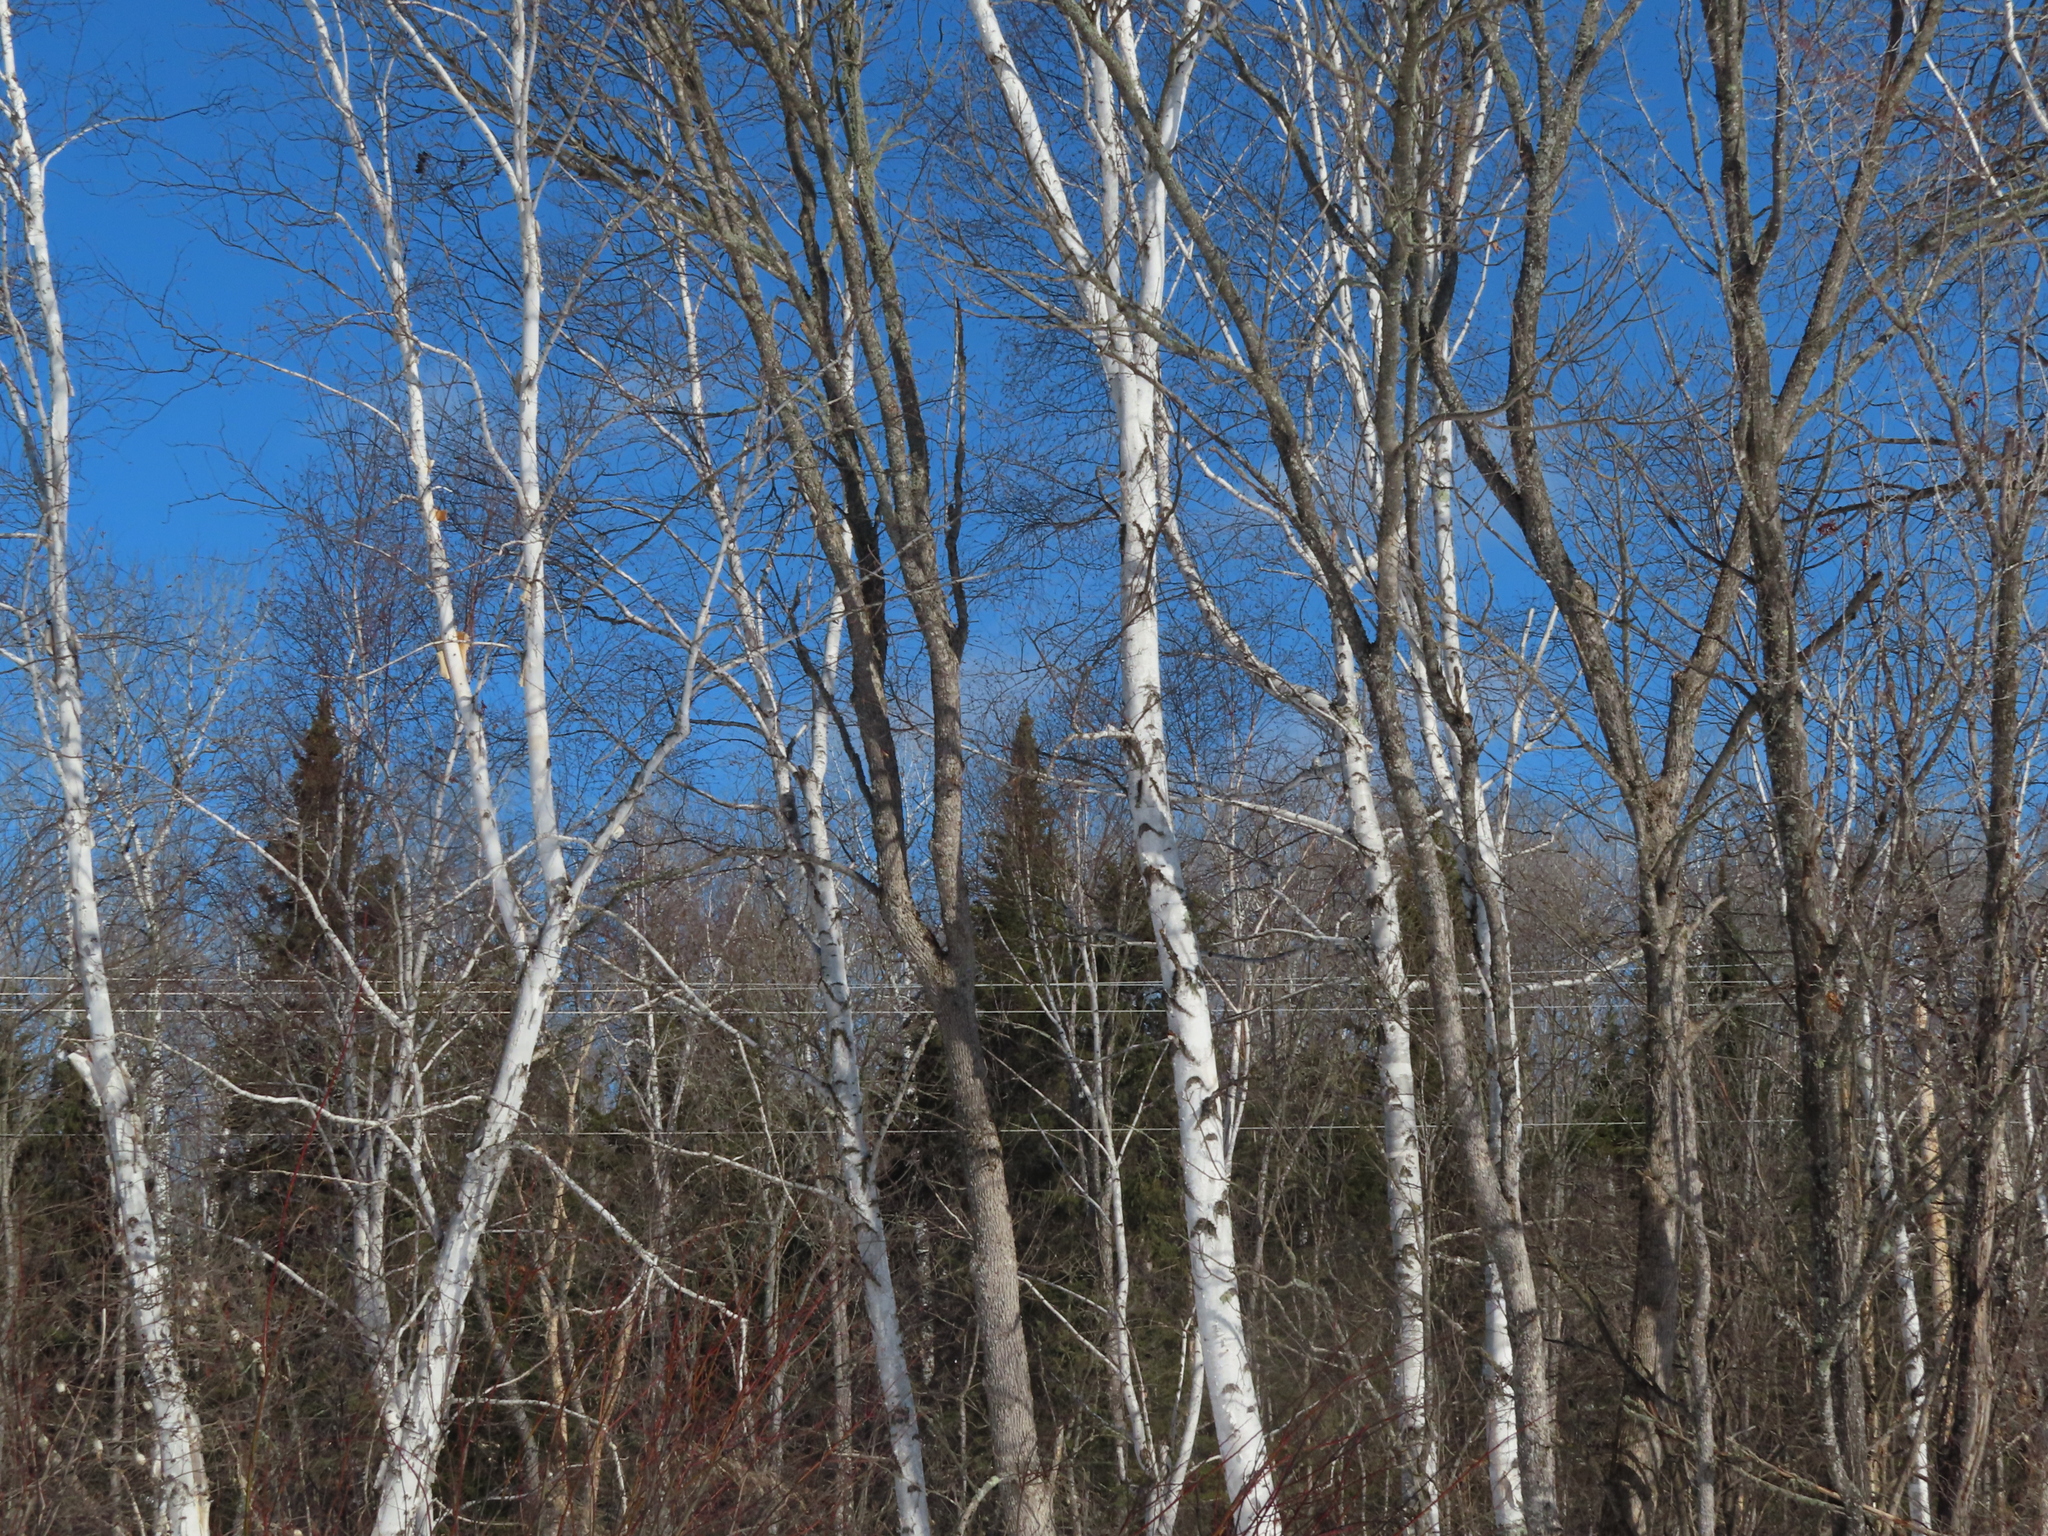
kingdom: Plantae
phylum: Tracheophyta
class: Magnoliopsida
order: Fagales
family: Betulaceae
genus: Betula
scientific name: Betula papyrifera
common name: Paper birch
